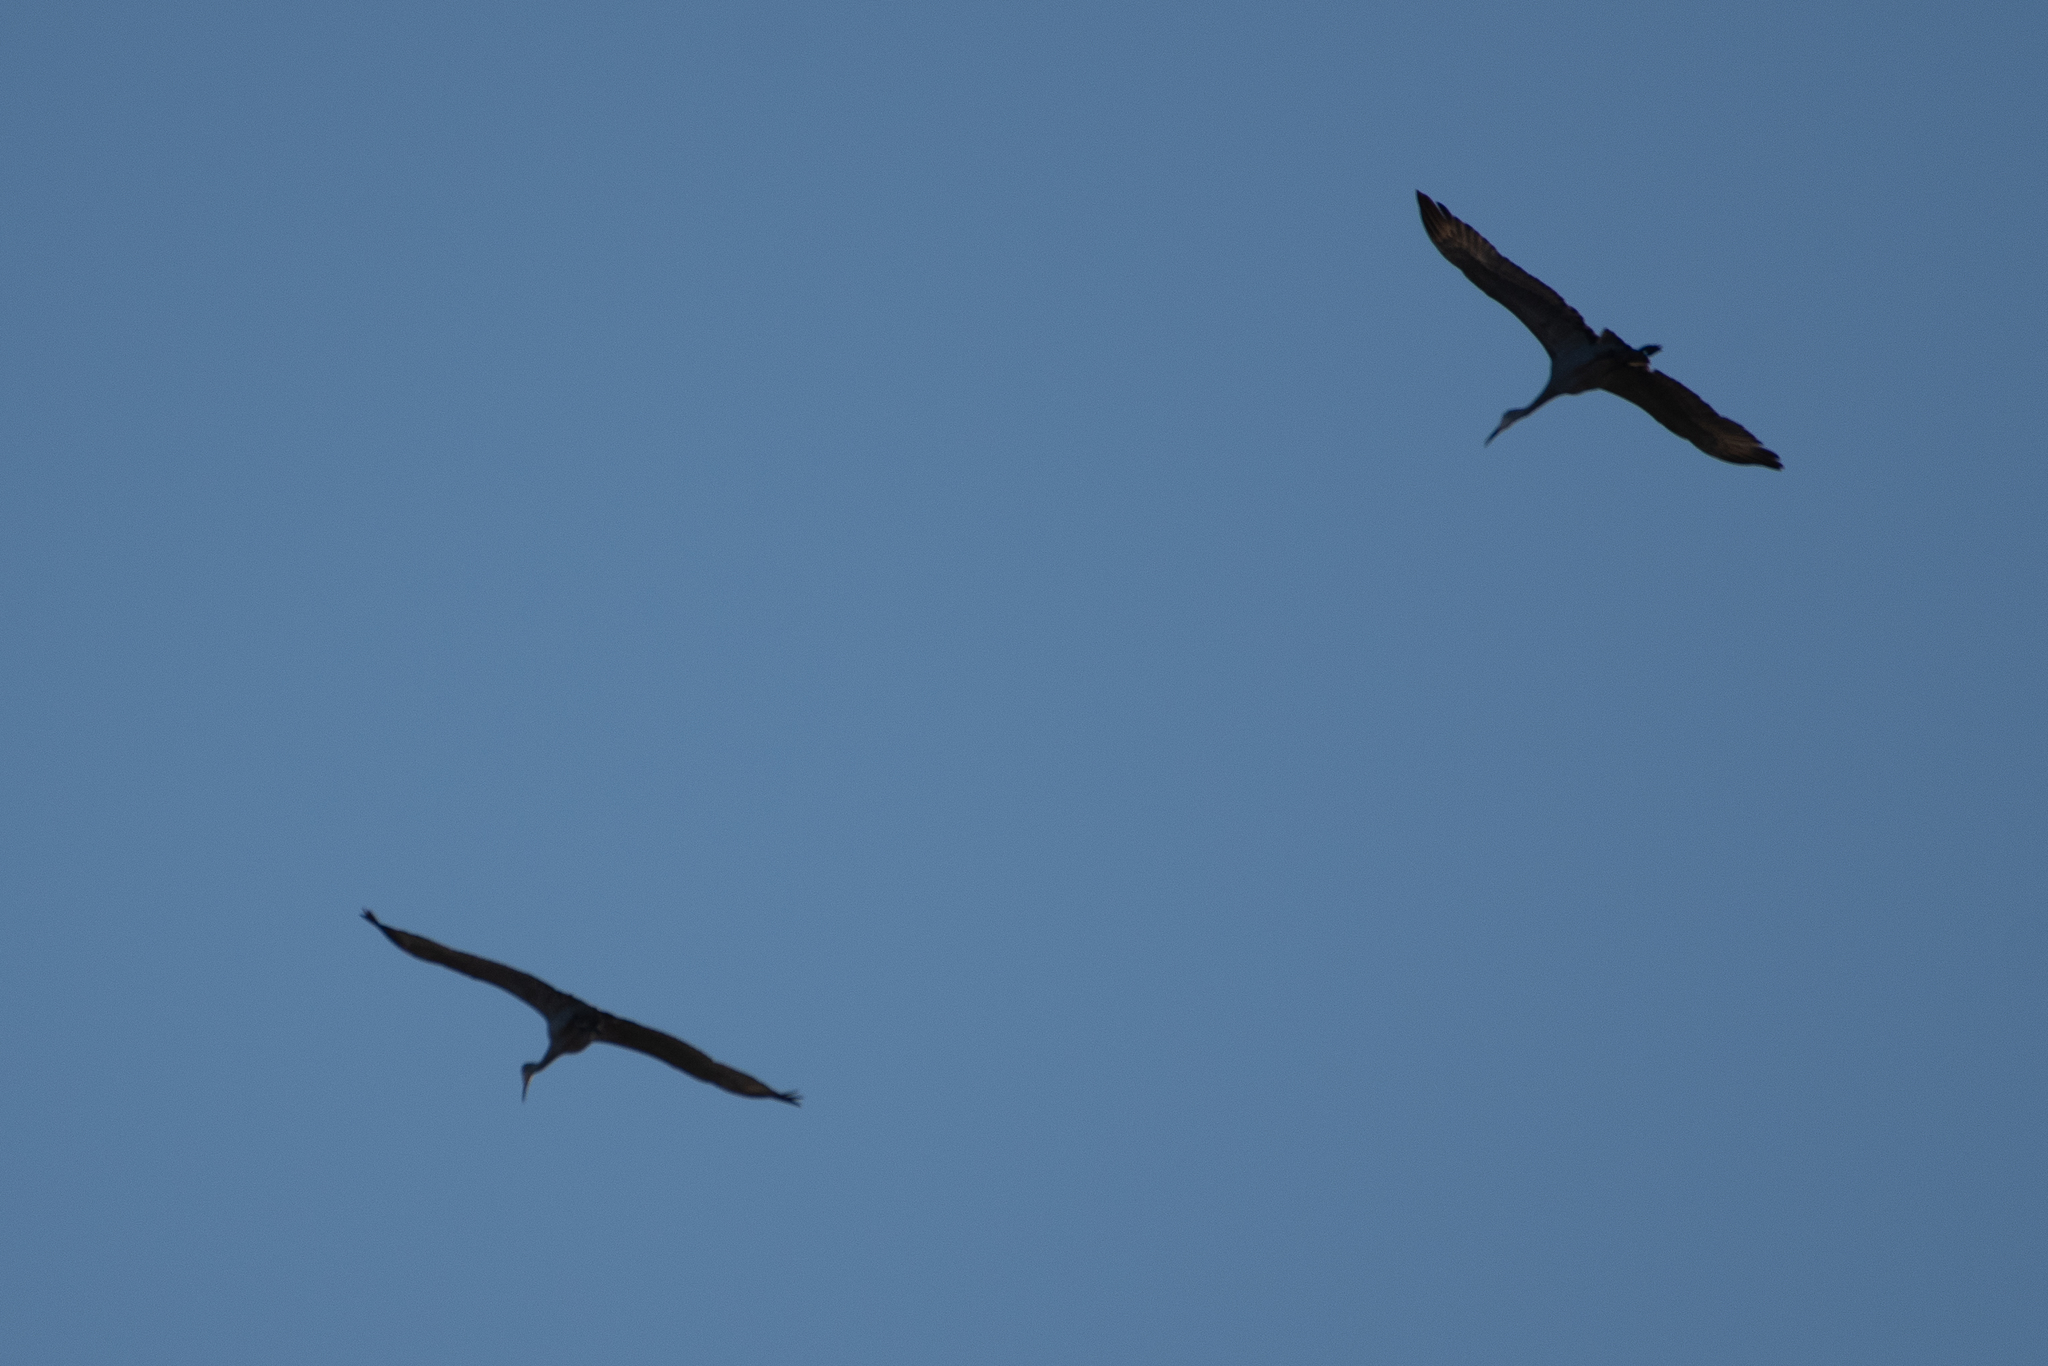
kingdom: Animalia
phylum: Chordata
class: Aves
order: Gruiformes
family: Gruidae
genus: Grus
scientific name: Grus canadensis
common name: Sandhill crane
